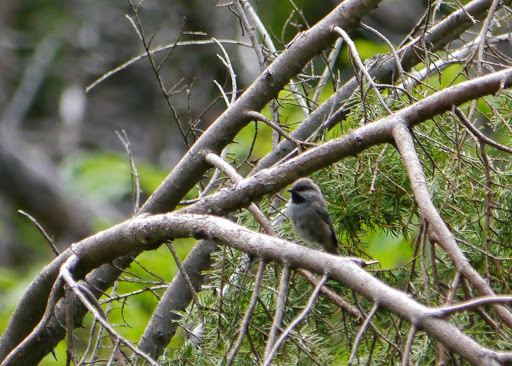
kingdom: Animalia
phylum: Chordata
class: Aves
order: Passeriformes
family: Paridae
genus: Poecile
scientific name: Poecile hudsonicus
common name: Boreal chickadee
